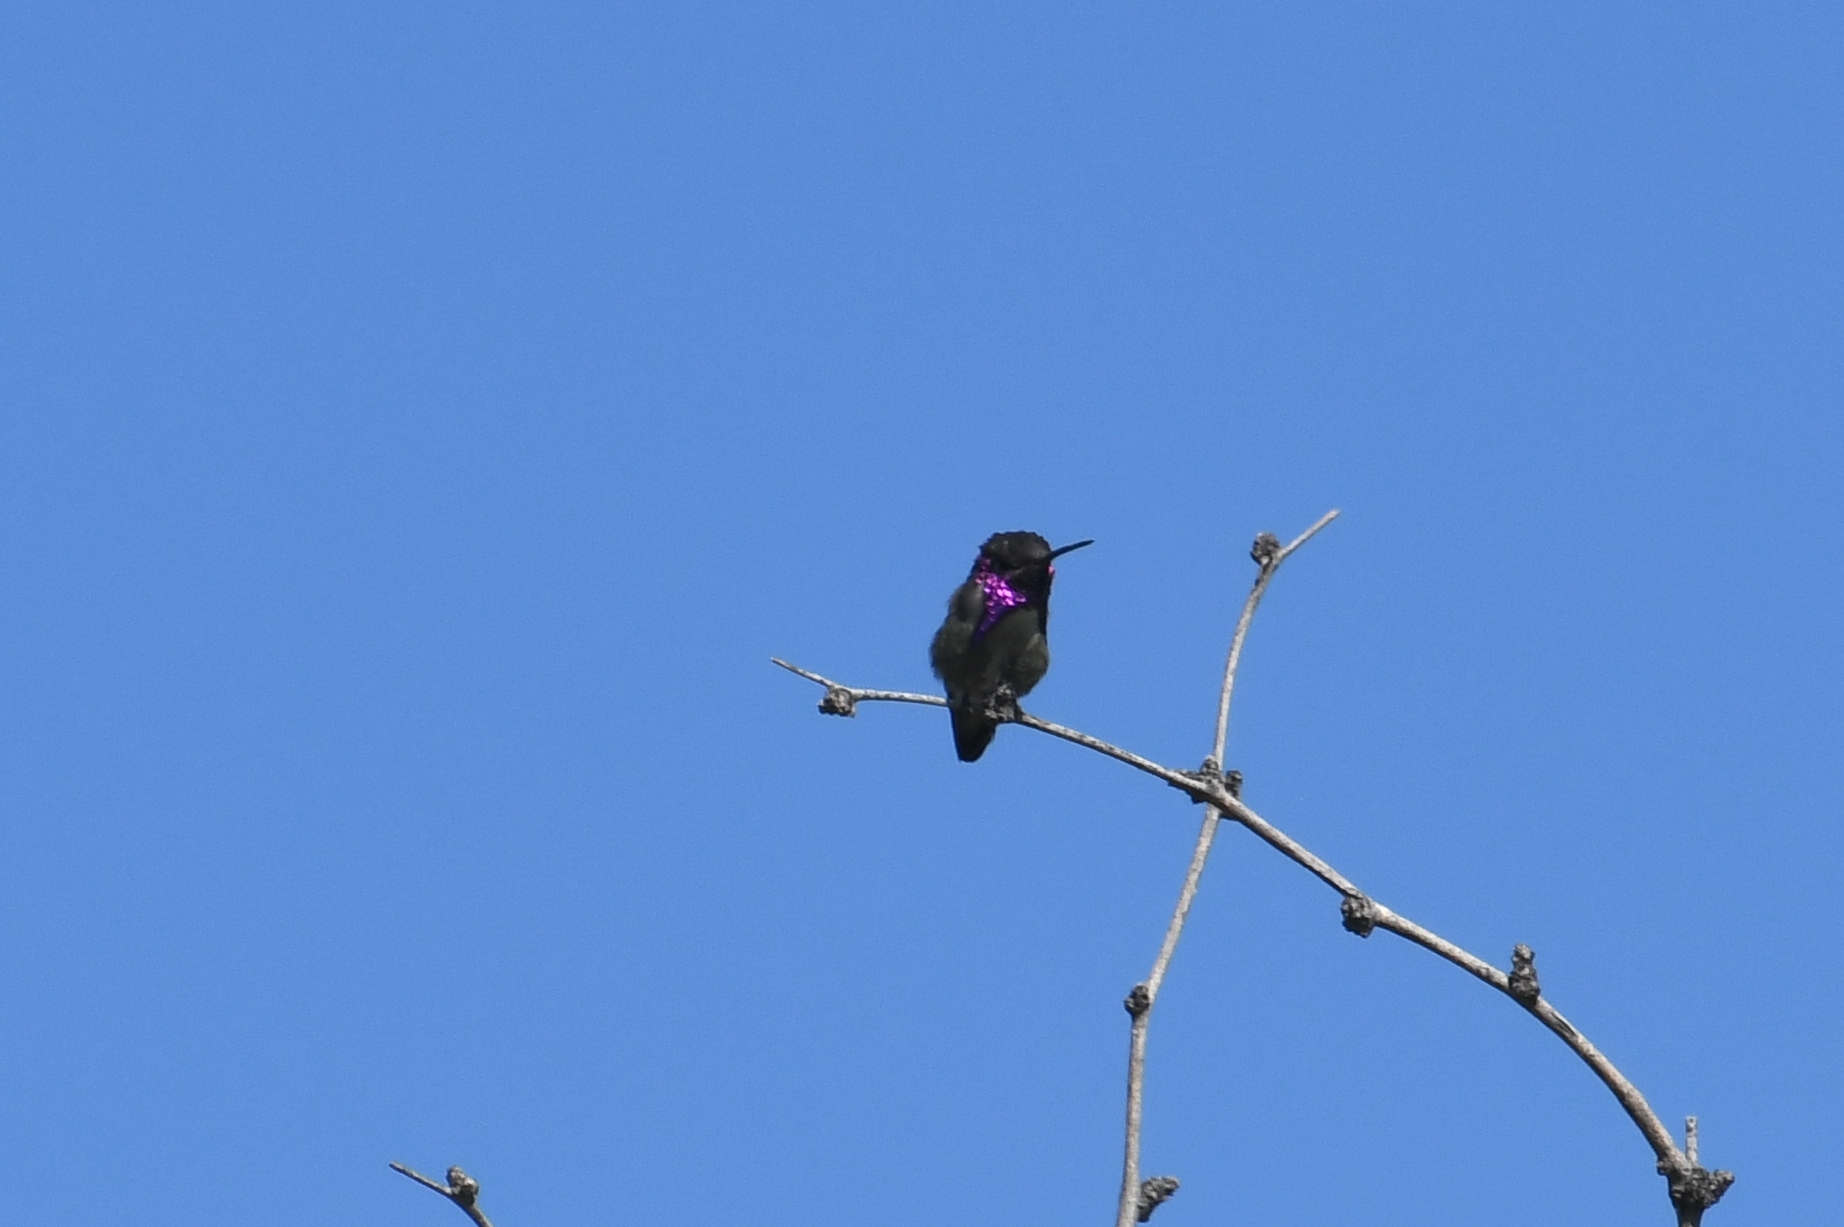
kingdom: Animalia
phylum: Chordata
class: Aves
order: Apodiformes
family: Trochilidae
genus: Calypte
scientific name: Calypte costae
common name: Costa's hummingbird
